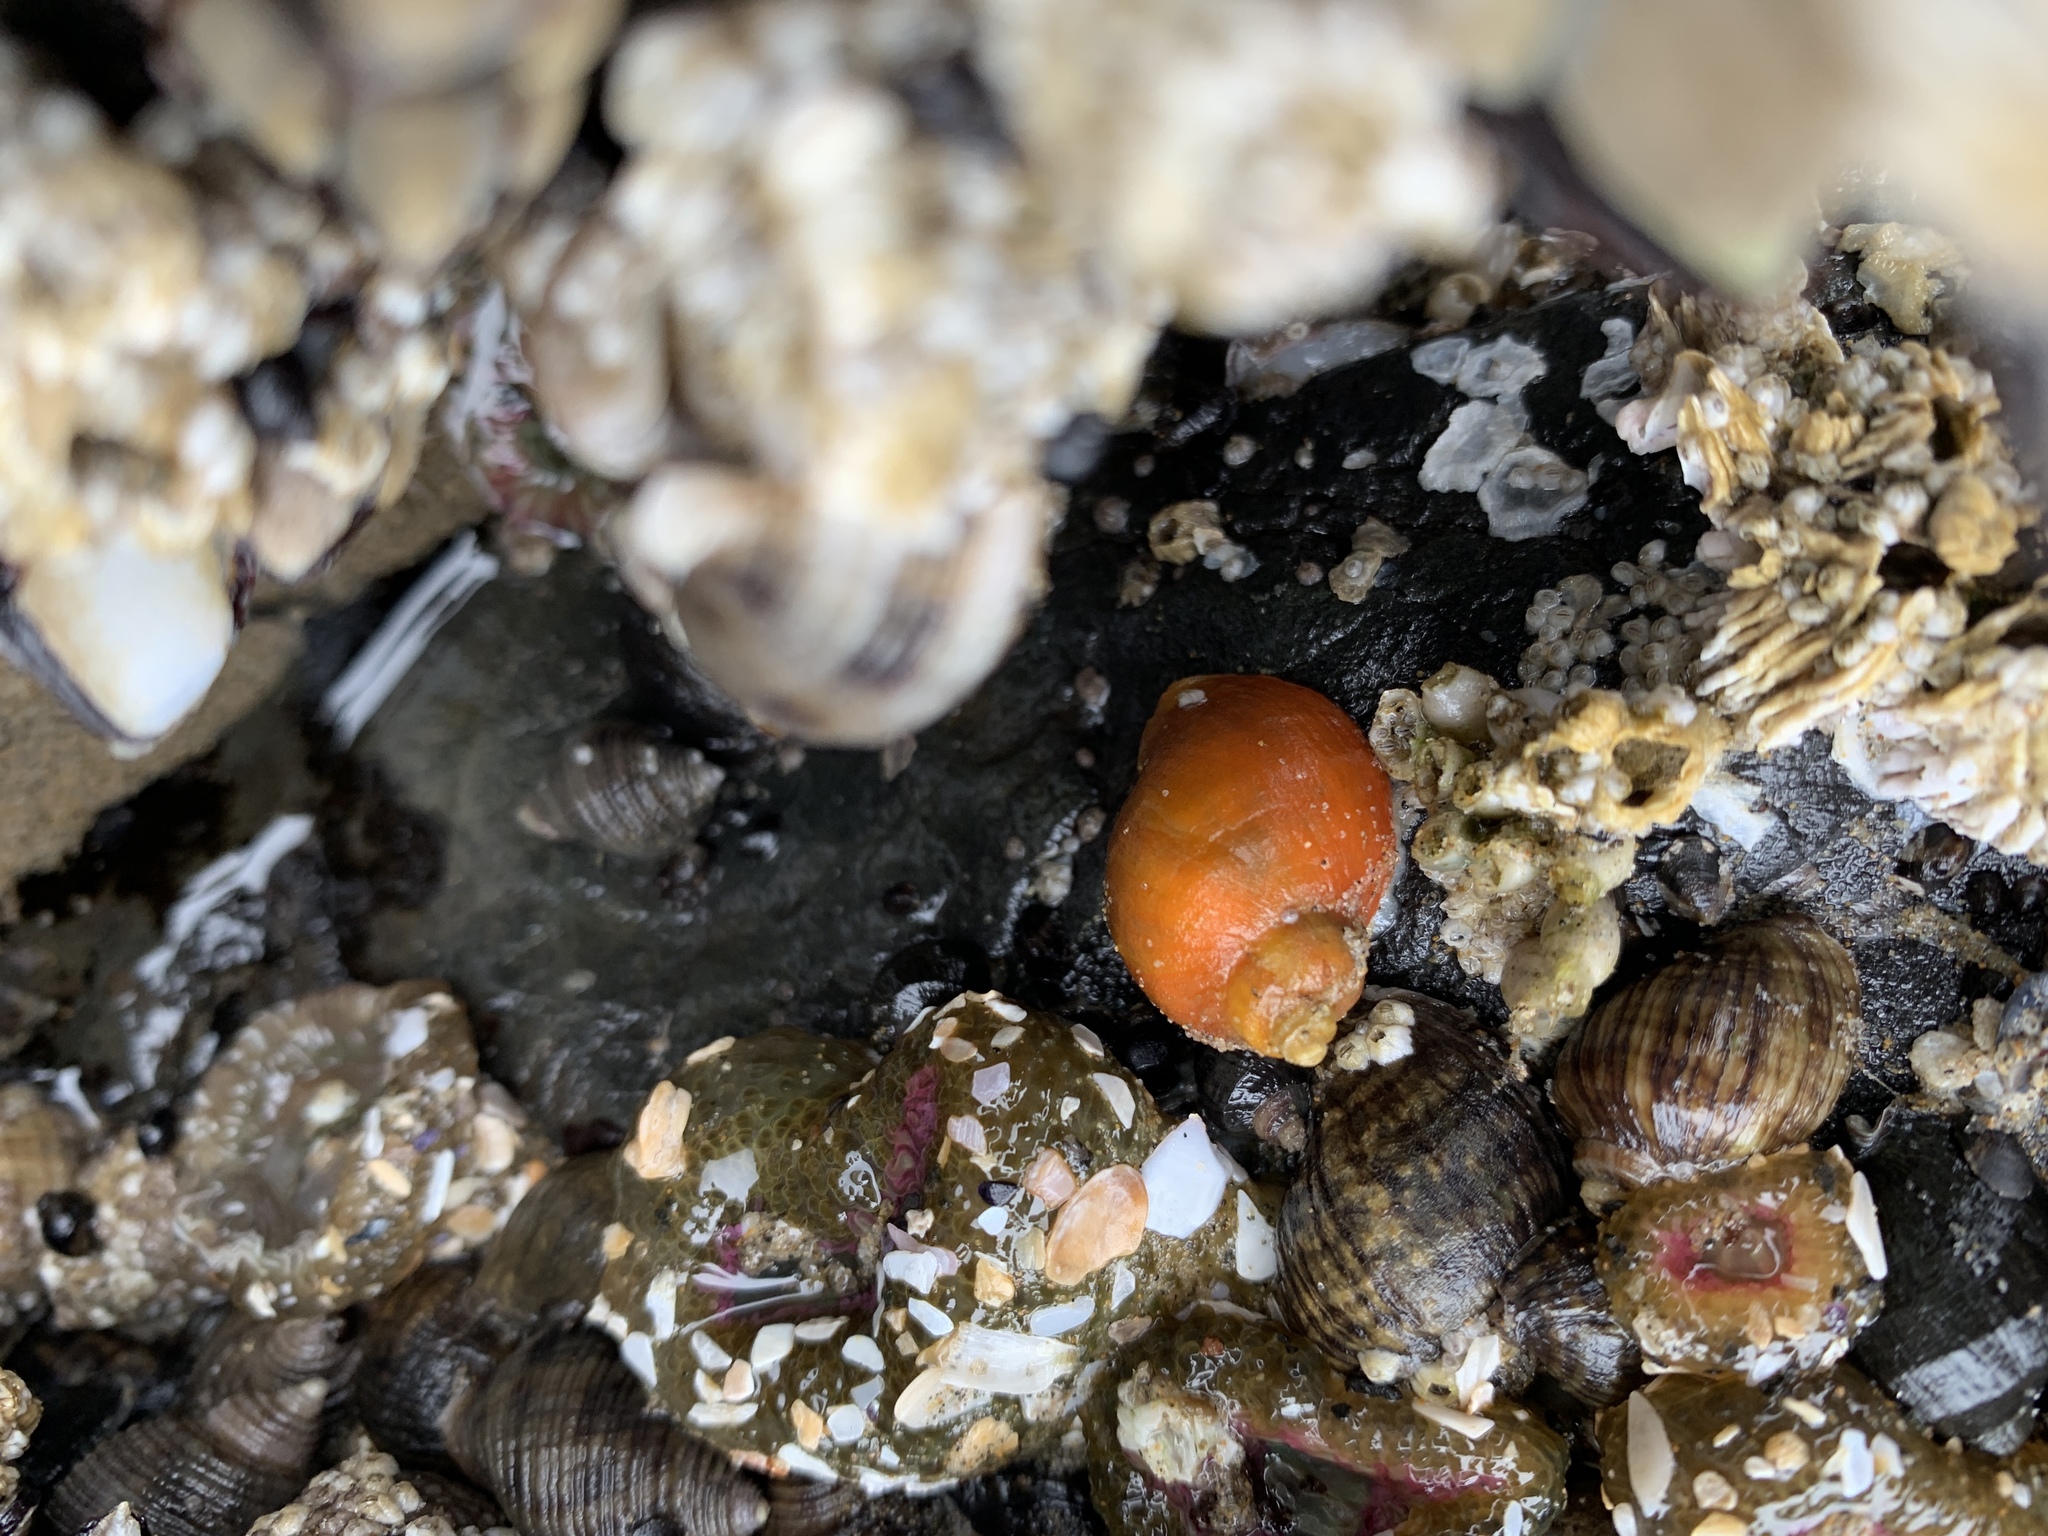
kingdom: Animalia
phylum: Mollusca
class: Gastropoda
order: Neogastropoda
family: Muricidae
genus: Nucella
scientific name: Nucella ostrina
